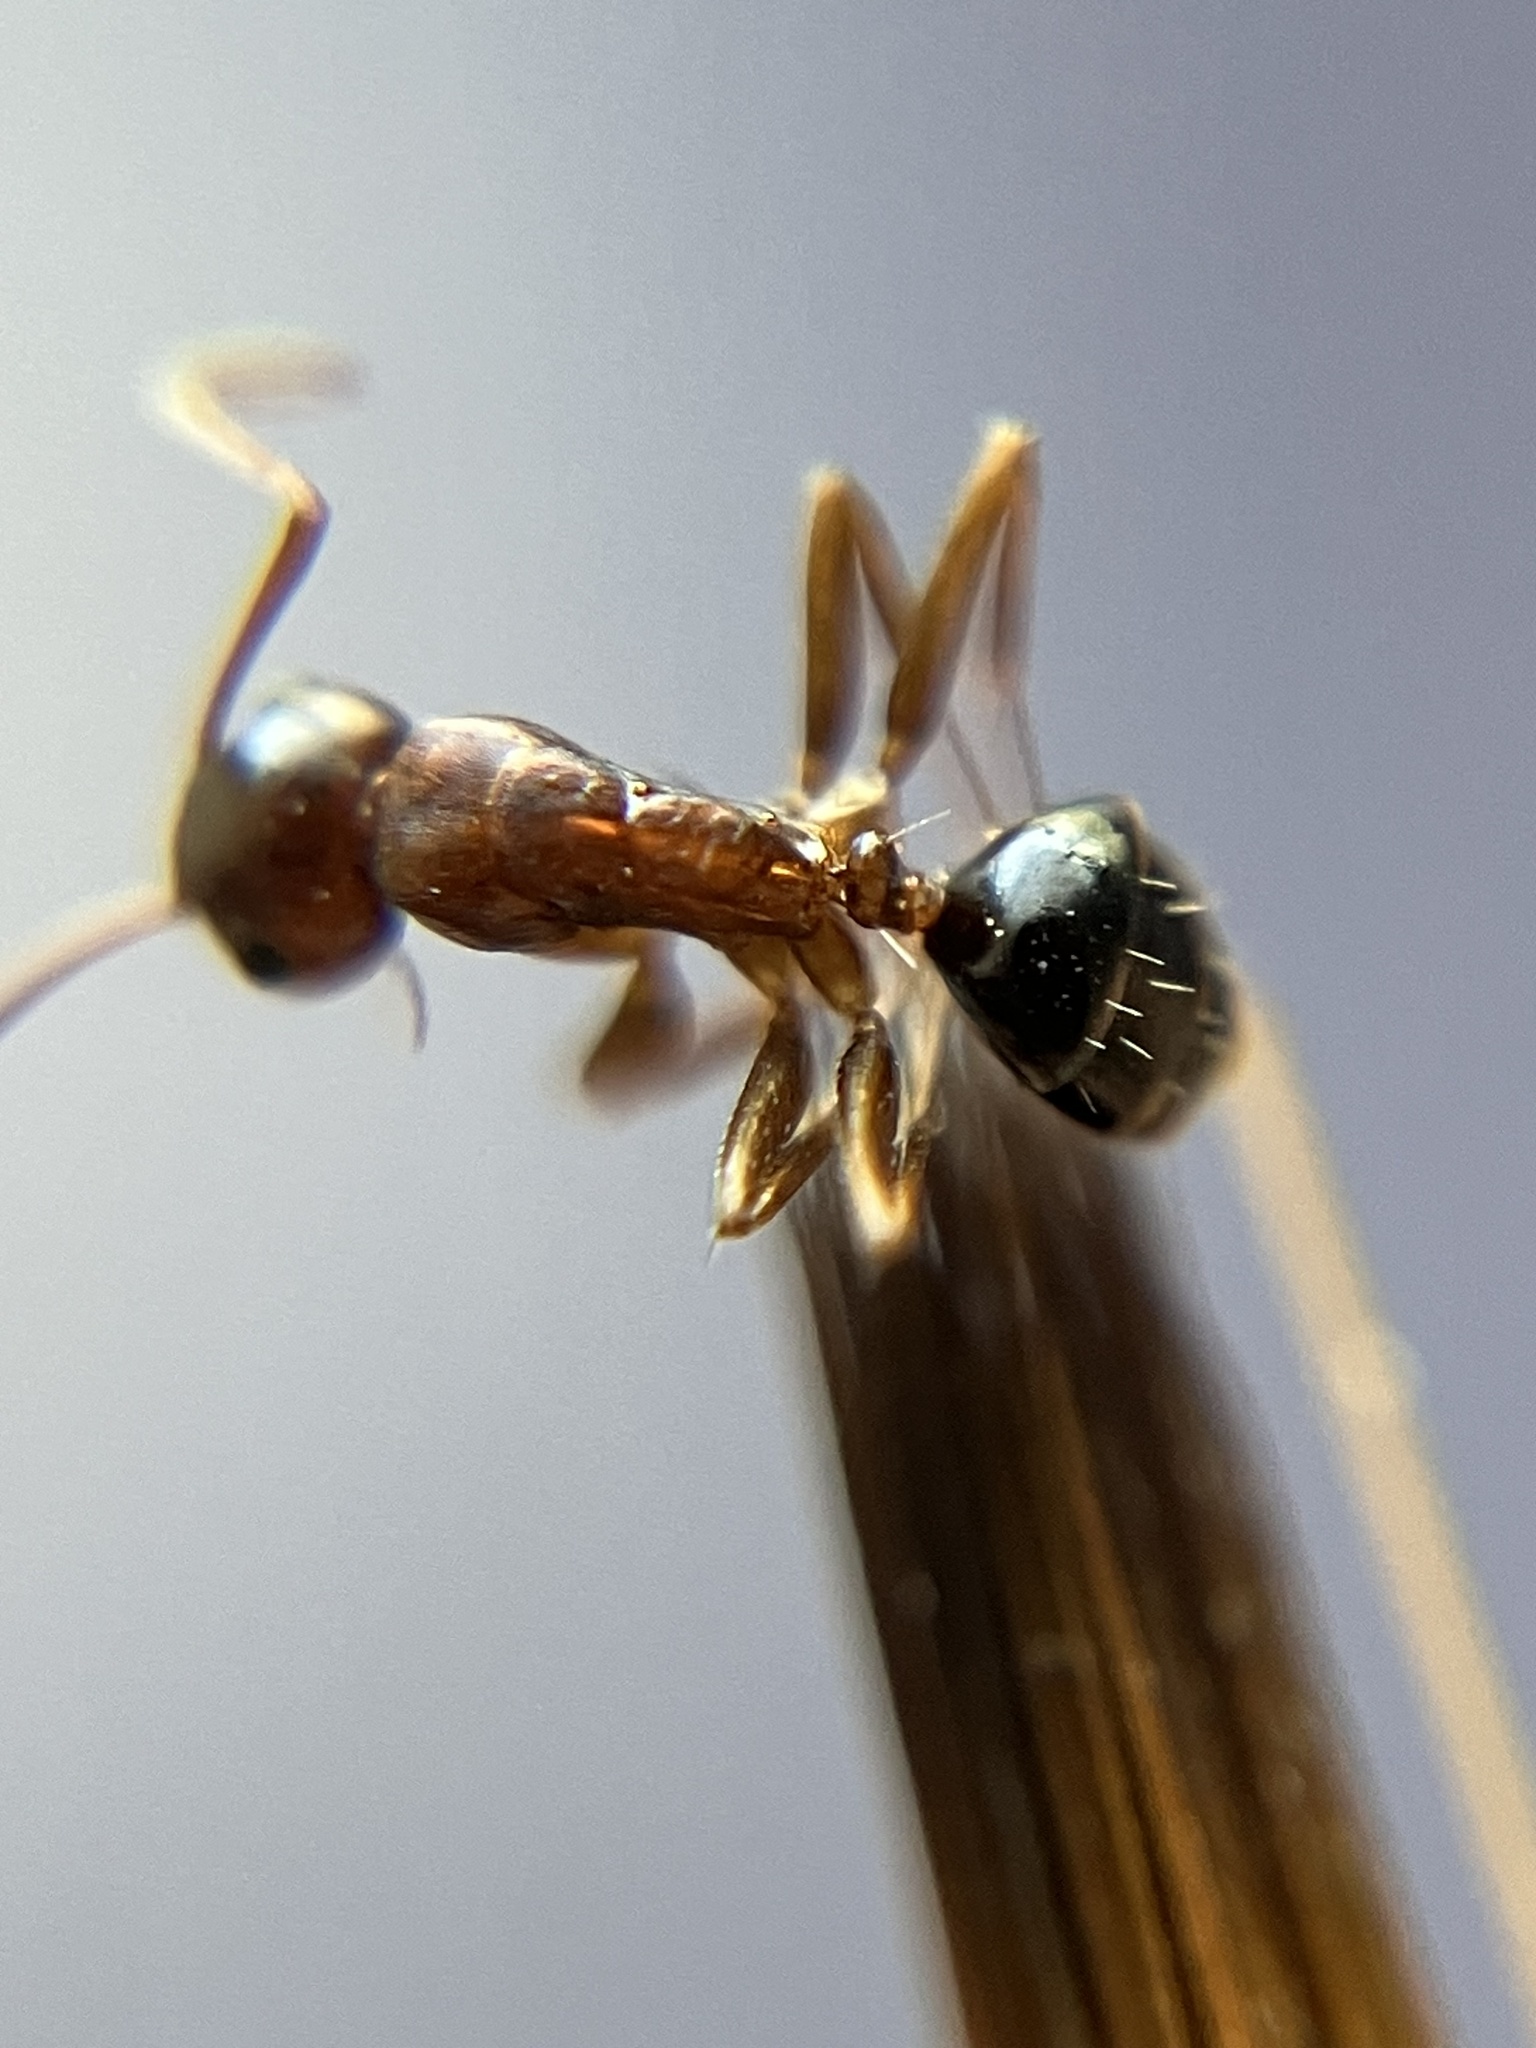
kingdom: Animalia
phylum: Arthropoda
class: Insecta
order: Hymenoptera
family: Formicidae
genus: Camponotus
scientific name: Camponotus nirvanae
